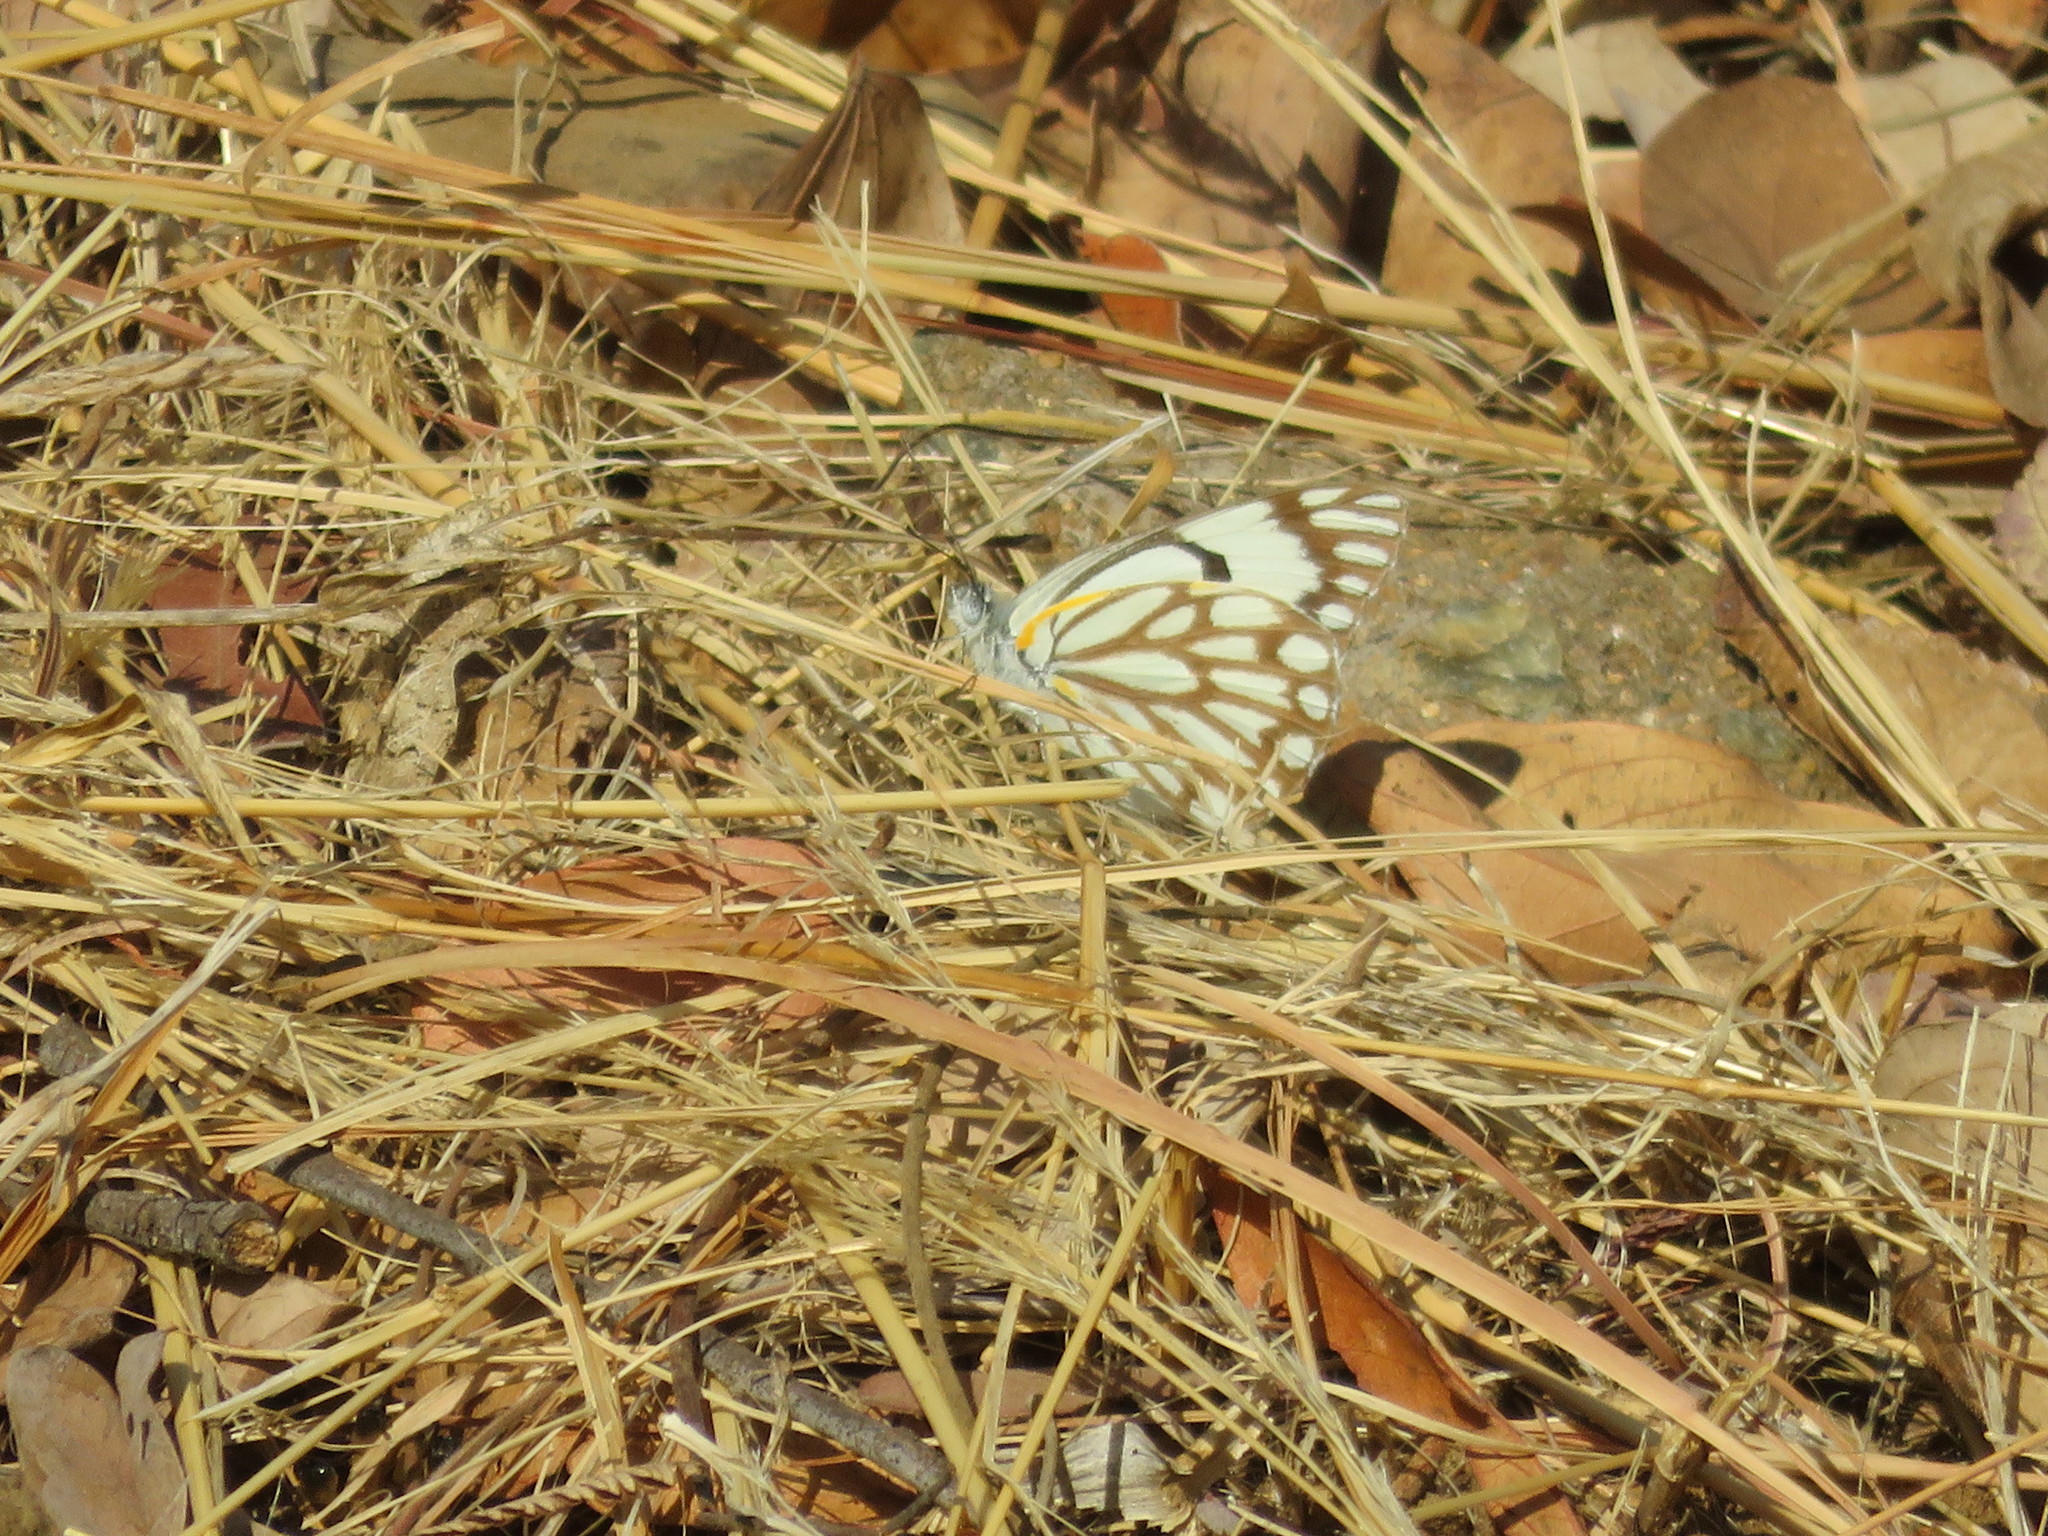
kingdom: Animalia
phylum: Arthropoda
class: Insecta
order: Lepidoptera
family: Pieridae
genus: Belenois
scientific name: Belenois aurota
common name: Brown-veined white
